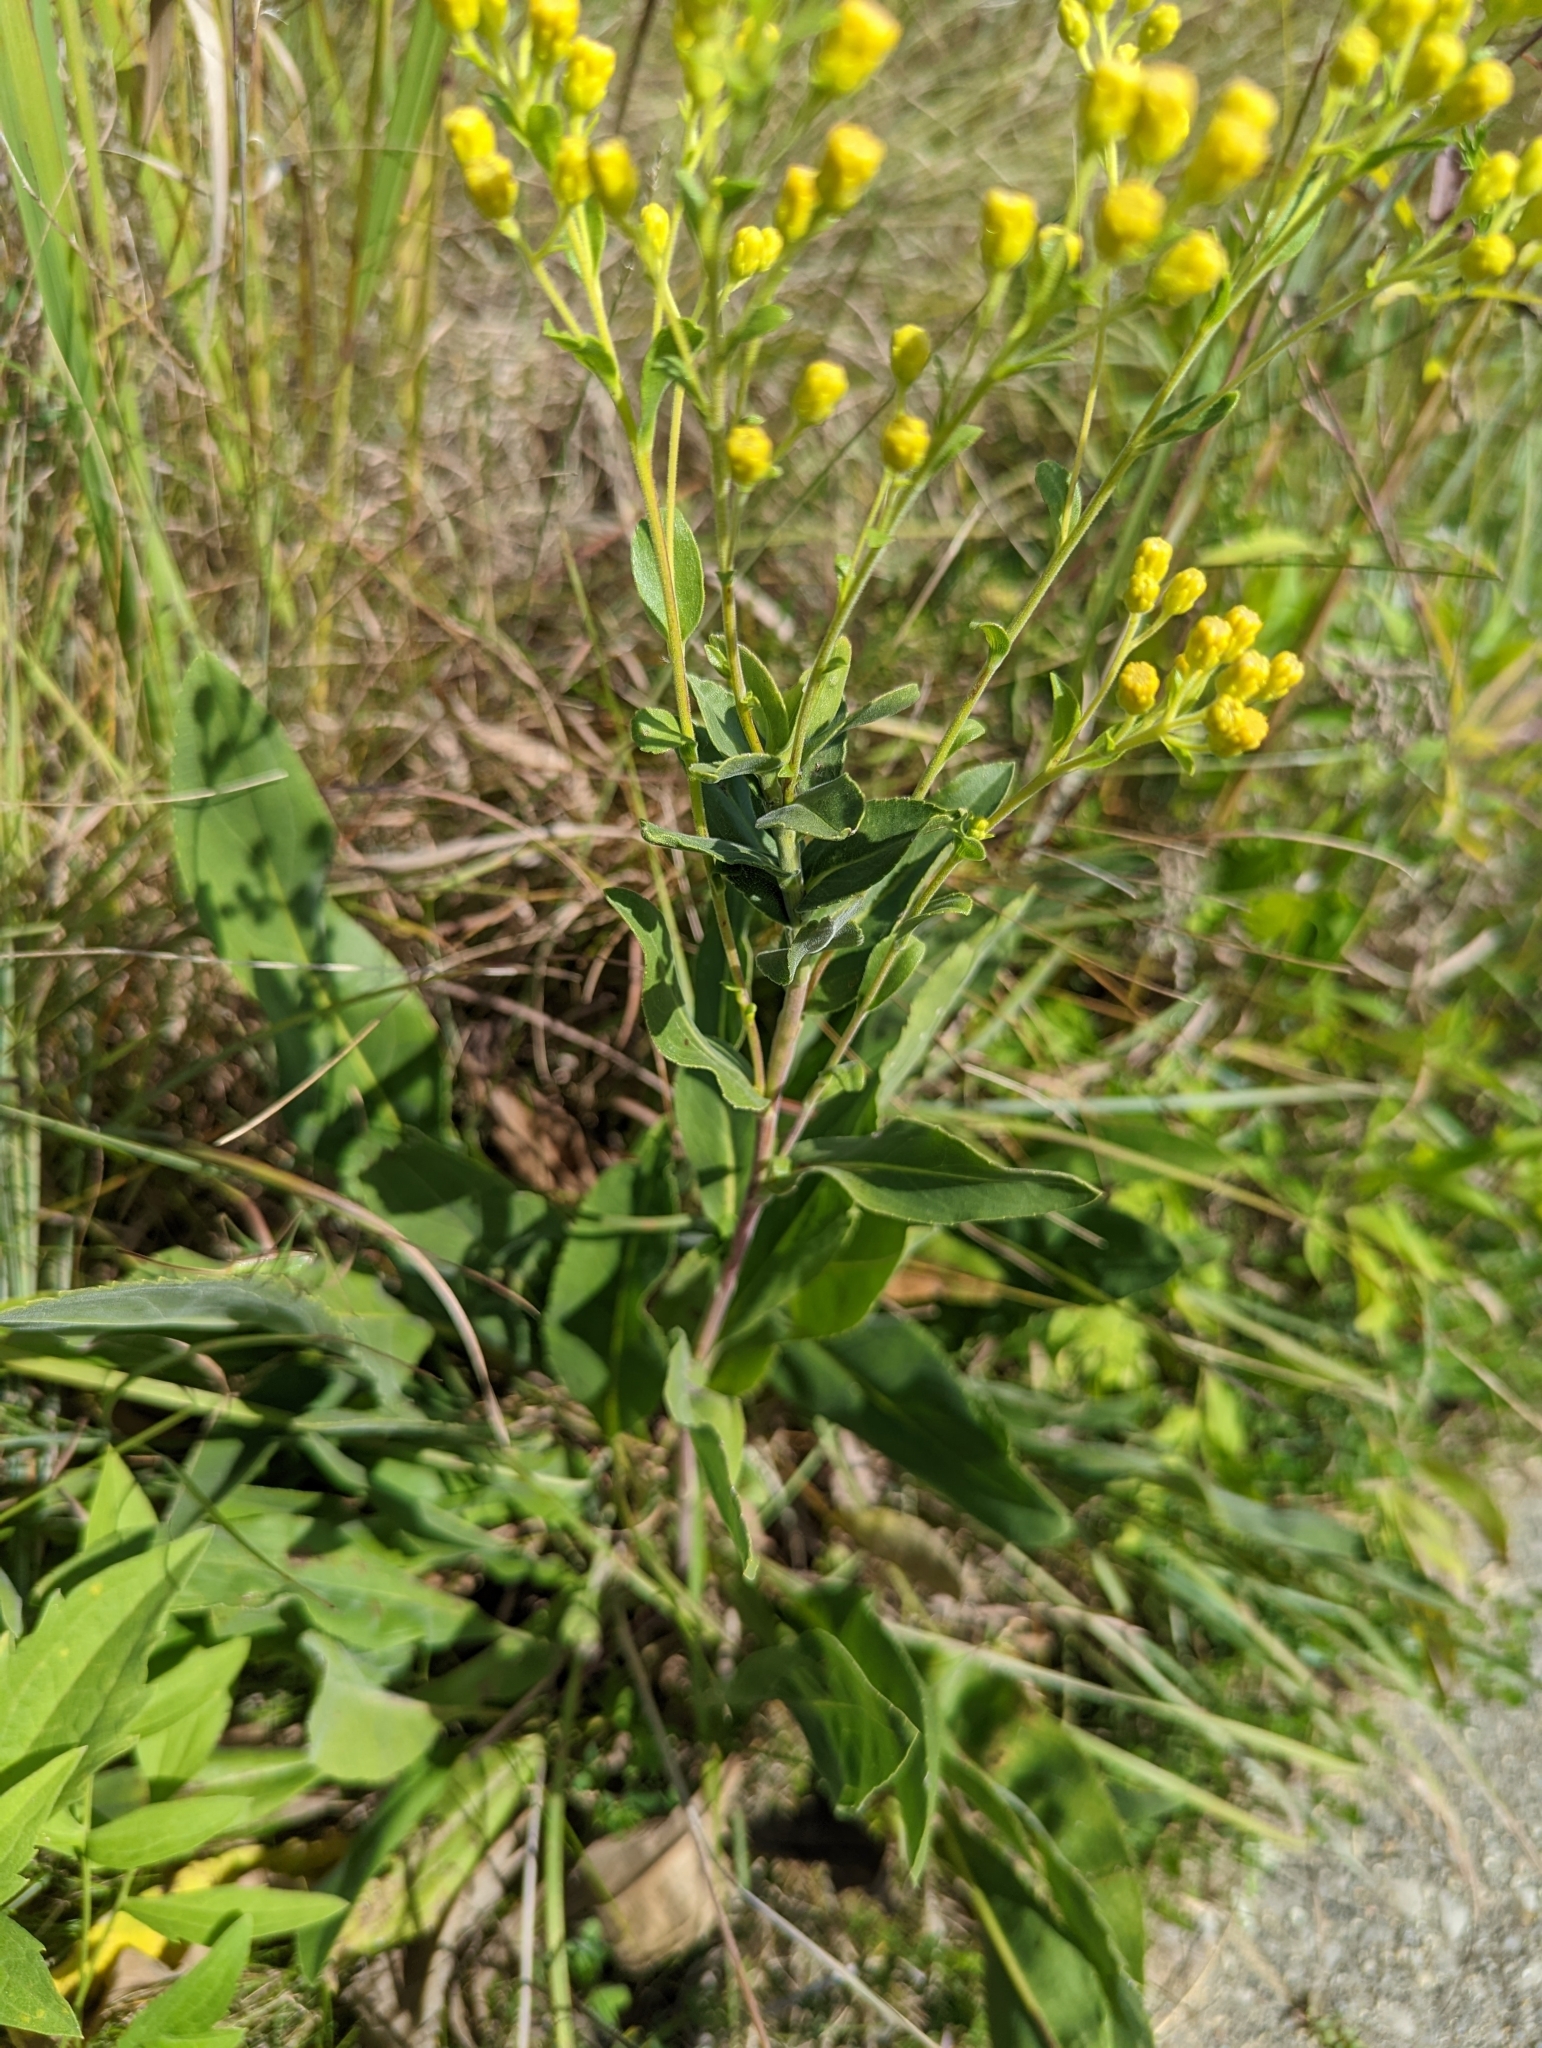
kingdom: Plantae
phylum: Tracheophyta
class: Magnoliopsida
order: Asterales
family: Asteraceae
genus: Solidago
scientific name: Solidago rigida
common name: Rigid goldenrod
